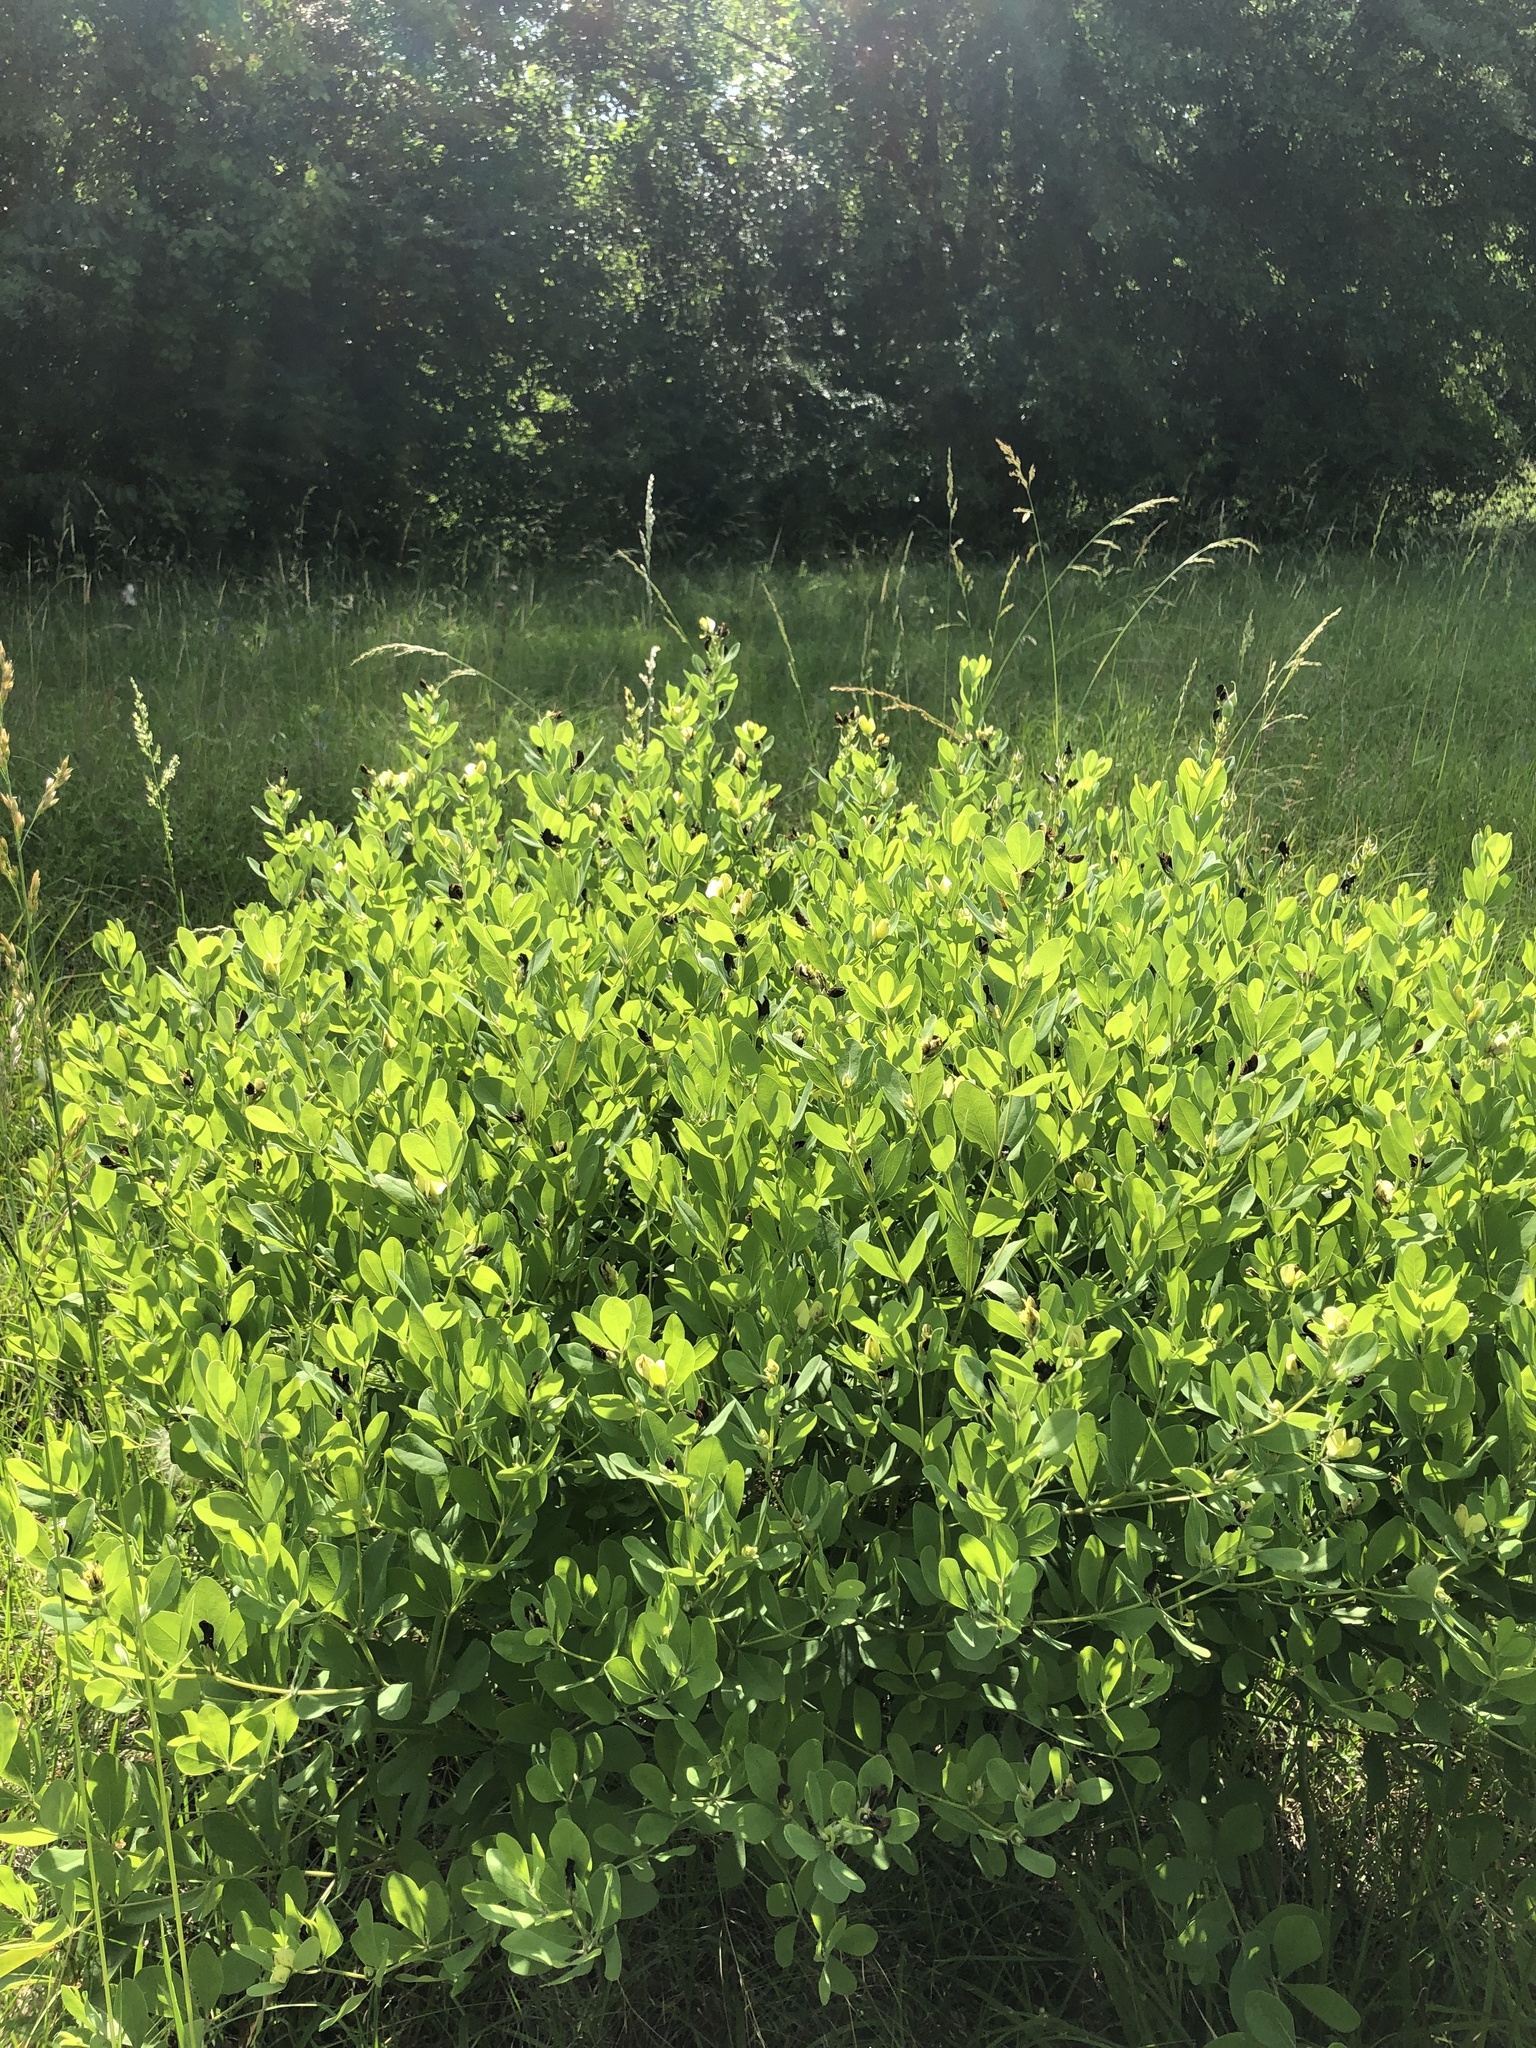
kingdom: Plantae
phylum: Tracheophyta
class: Magnoliopsida
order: Fabales
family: Fabaceae
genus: Baptisia
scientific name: Baptisia nuttalliana
